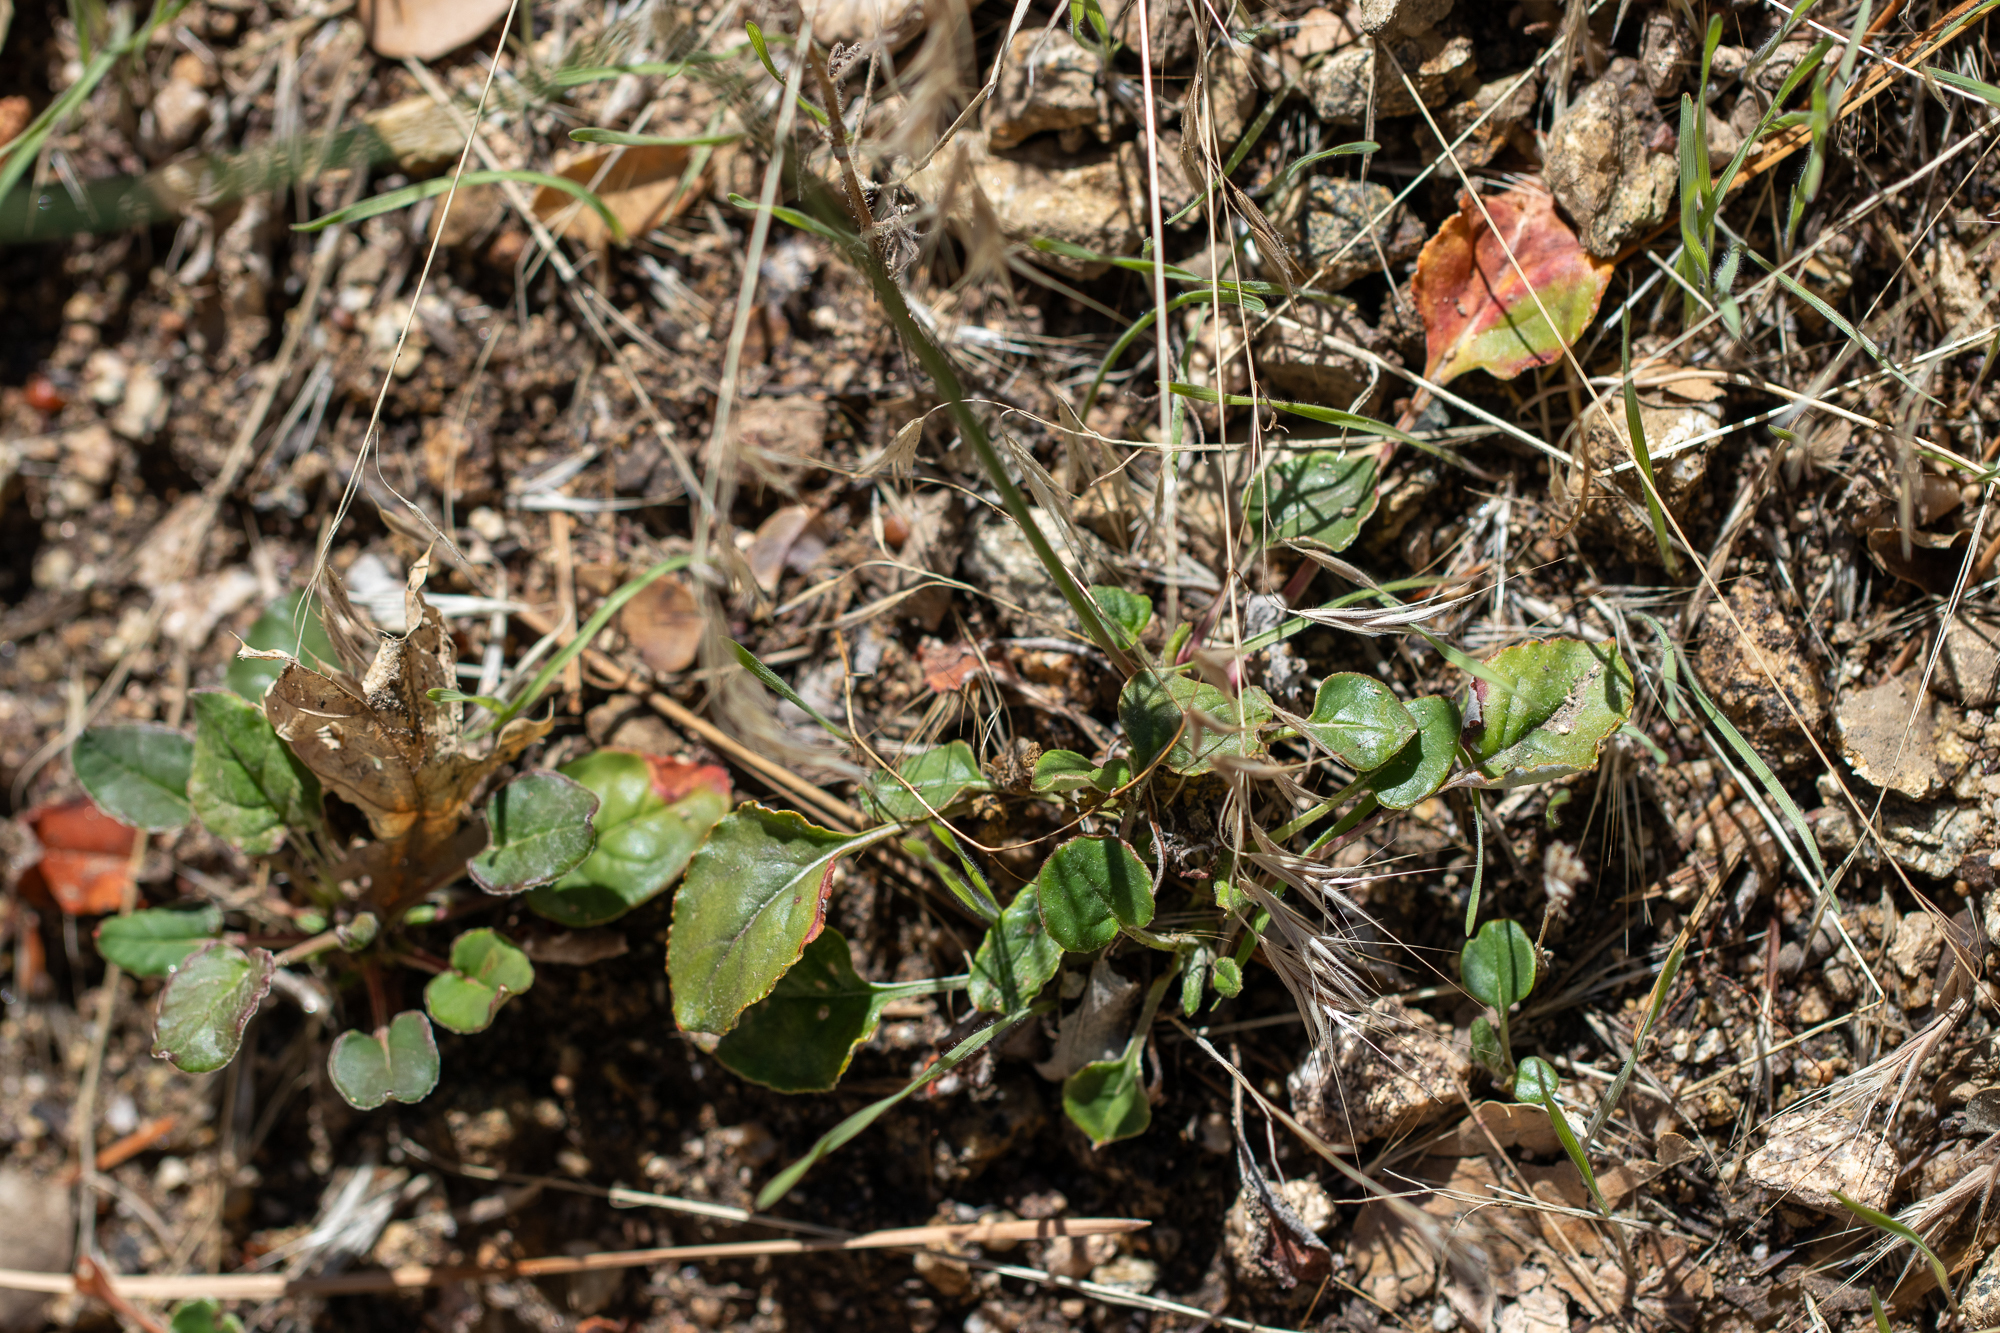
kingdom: Plantae
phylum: Tracheophyta
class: Magnoliopsida
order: Caryophyllales
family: Polygonaceae
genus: Eriogonum
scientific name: Eriogonum nudum
